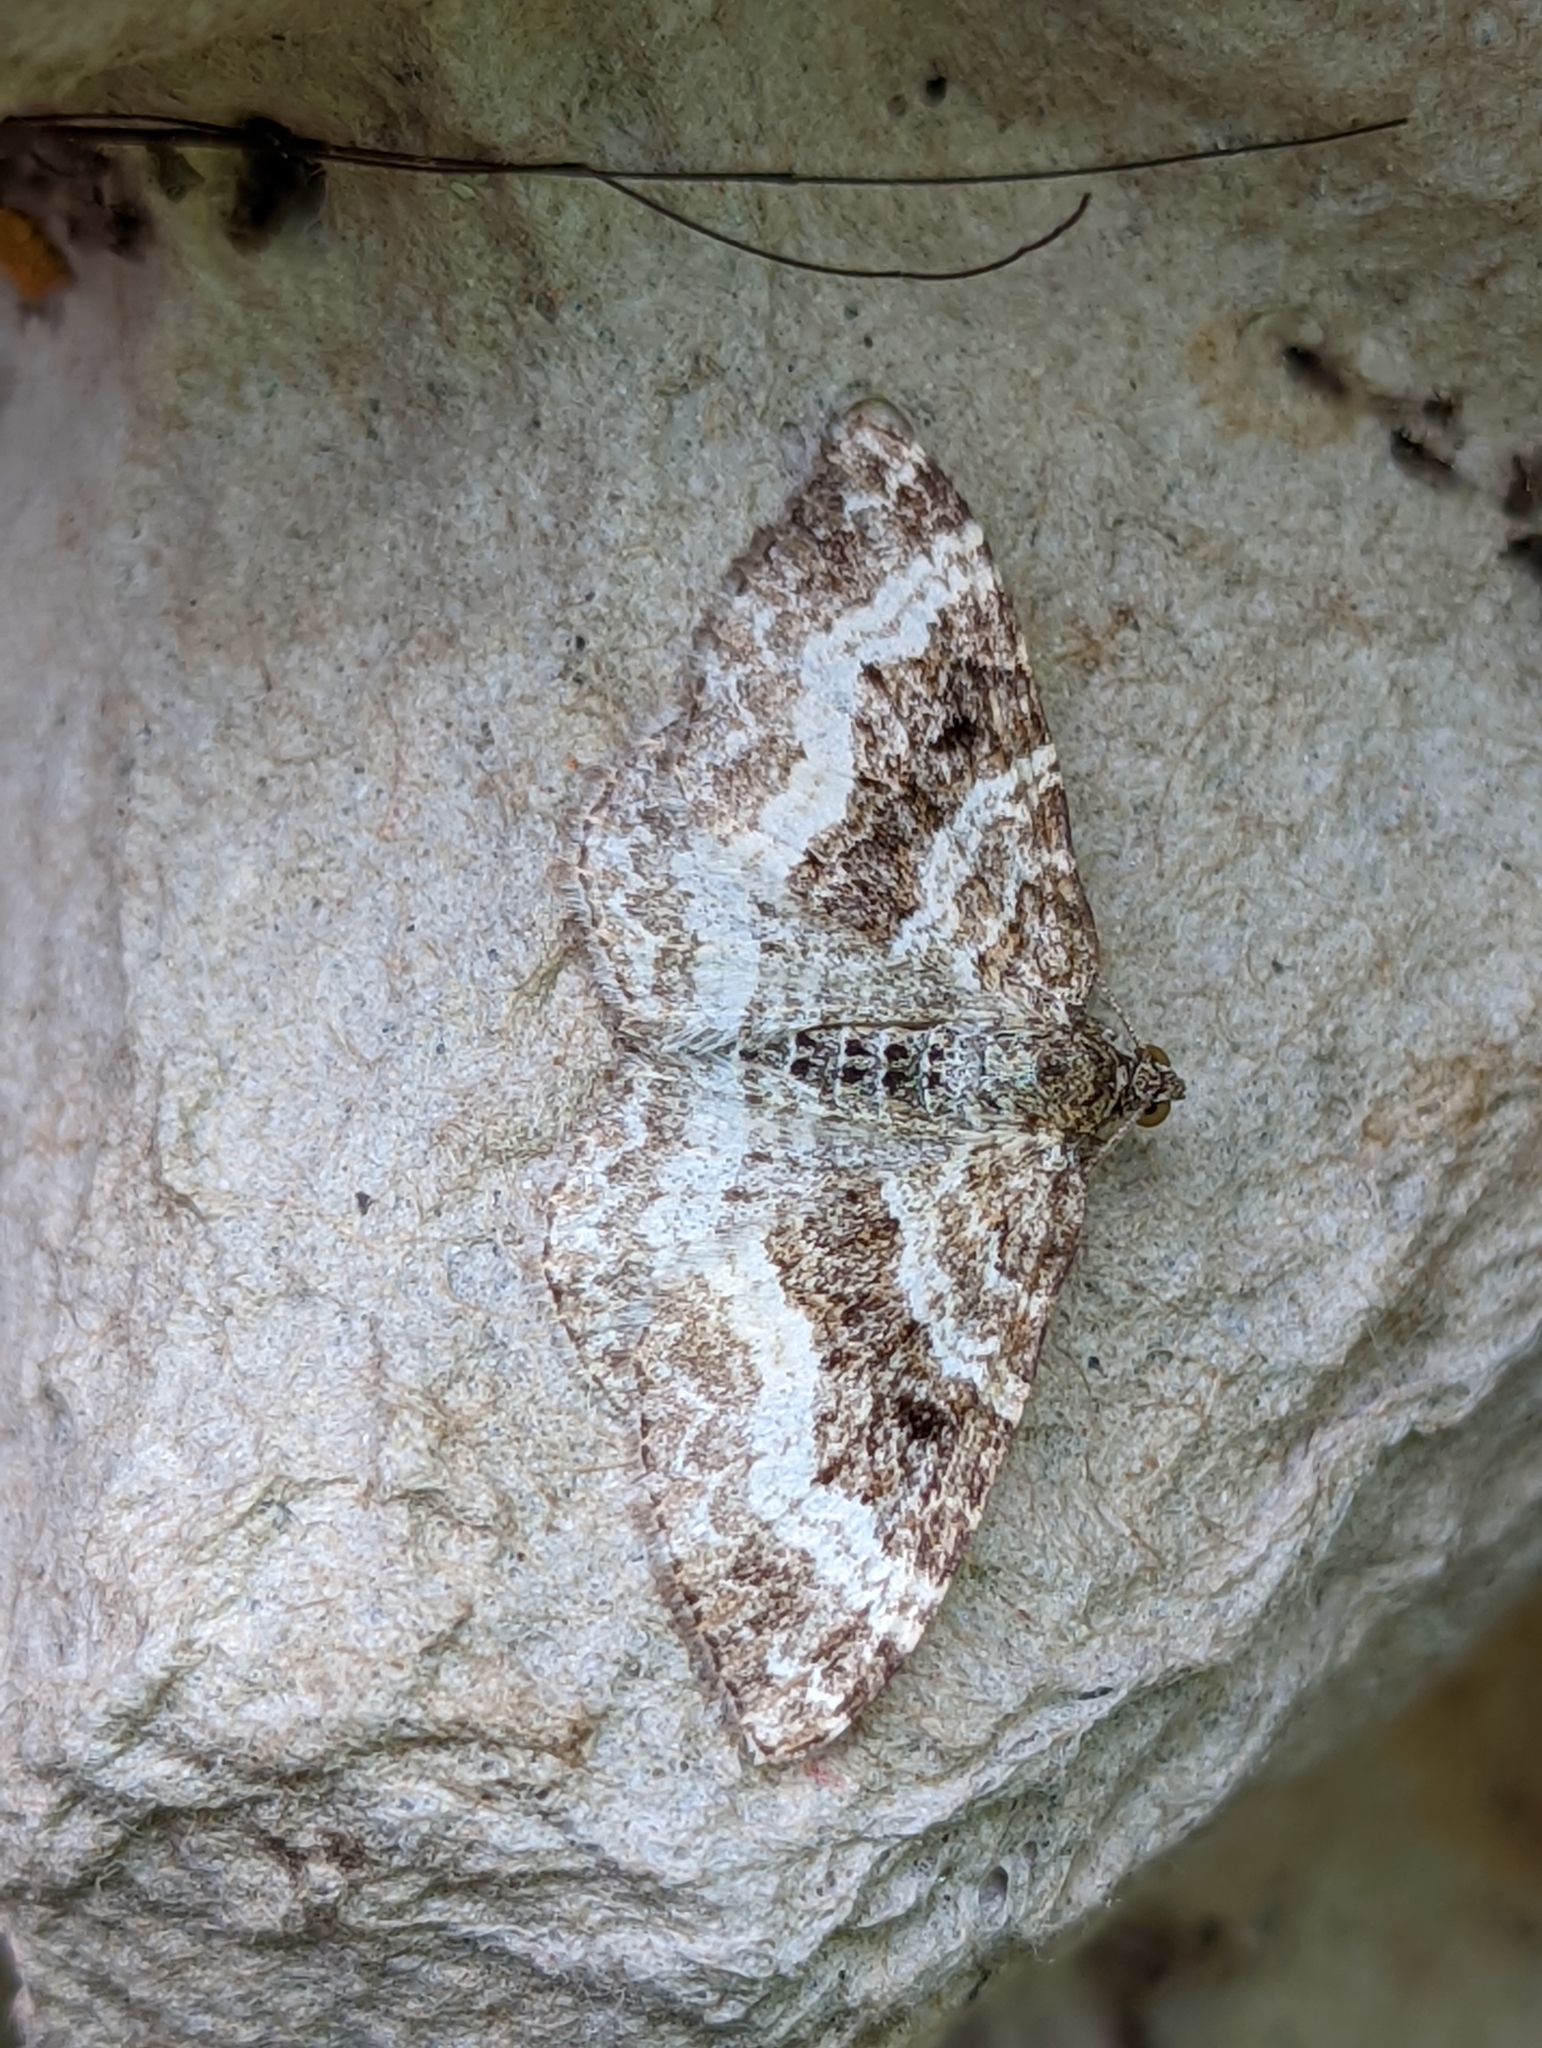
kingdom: Animalia
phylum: Arthropoda
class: Insecta
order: Lepidoptera
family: Geometridae
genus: Epirrhoe
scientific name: Epirrhoe alternata
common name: Common carpet
